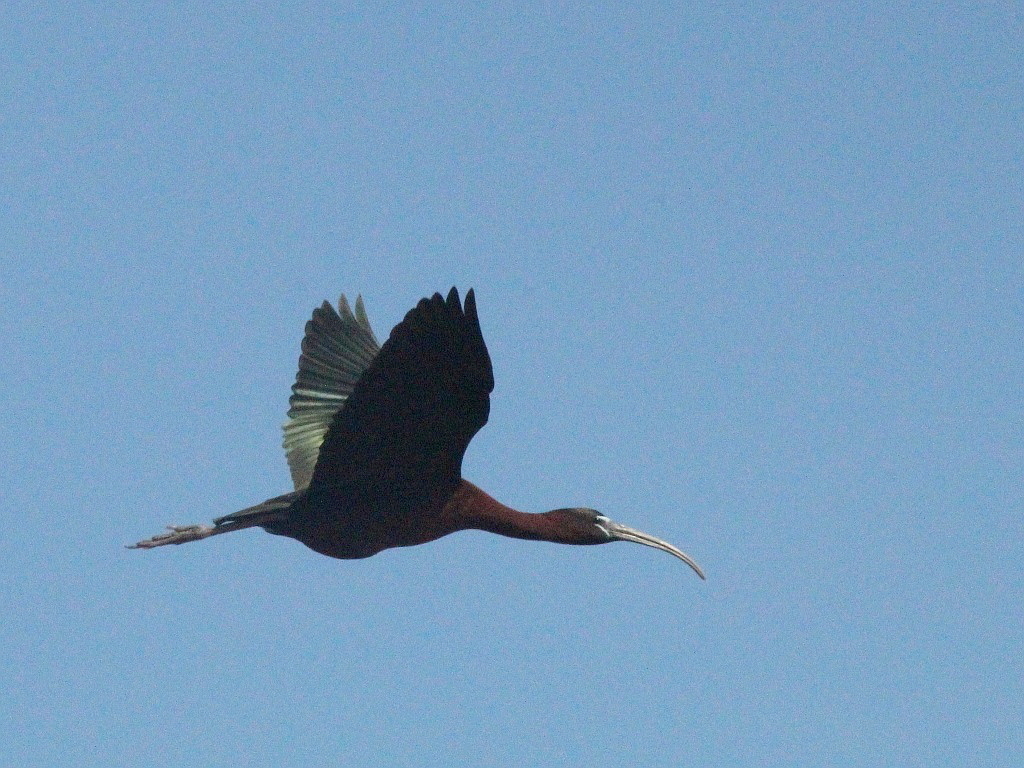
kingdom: Animalia
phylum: Chordata
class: Aves
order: Pelecaniformes
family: Threskiornithidae
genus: Plegadis
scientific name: Plegadis falcinellus
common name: Glossy ibis
